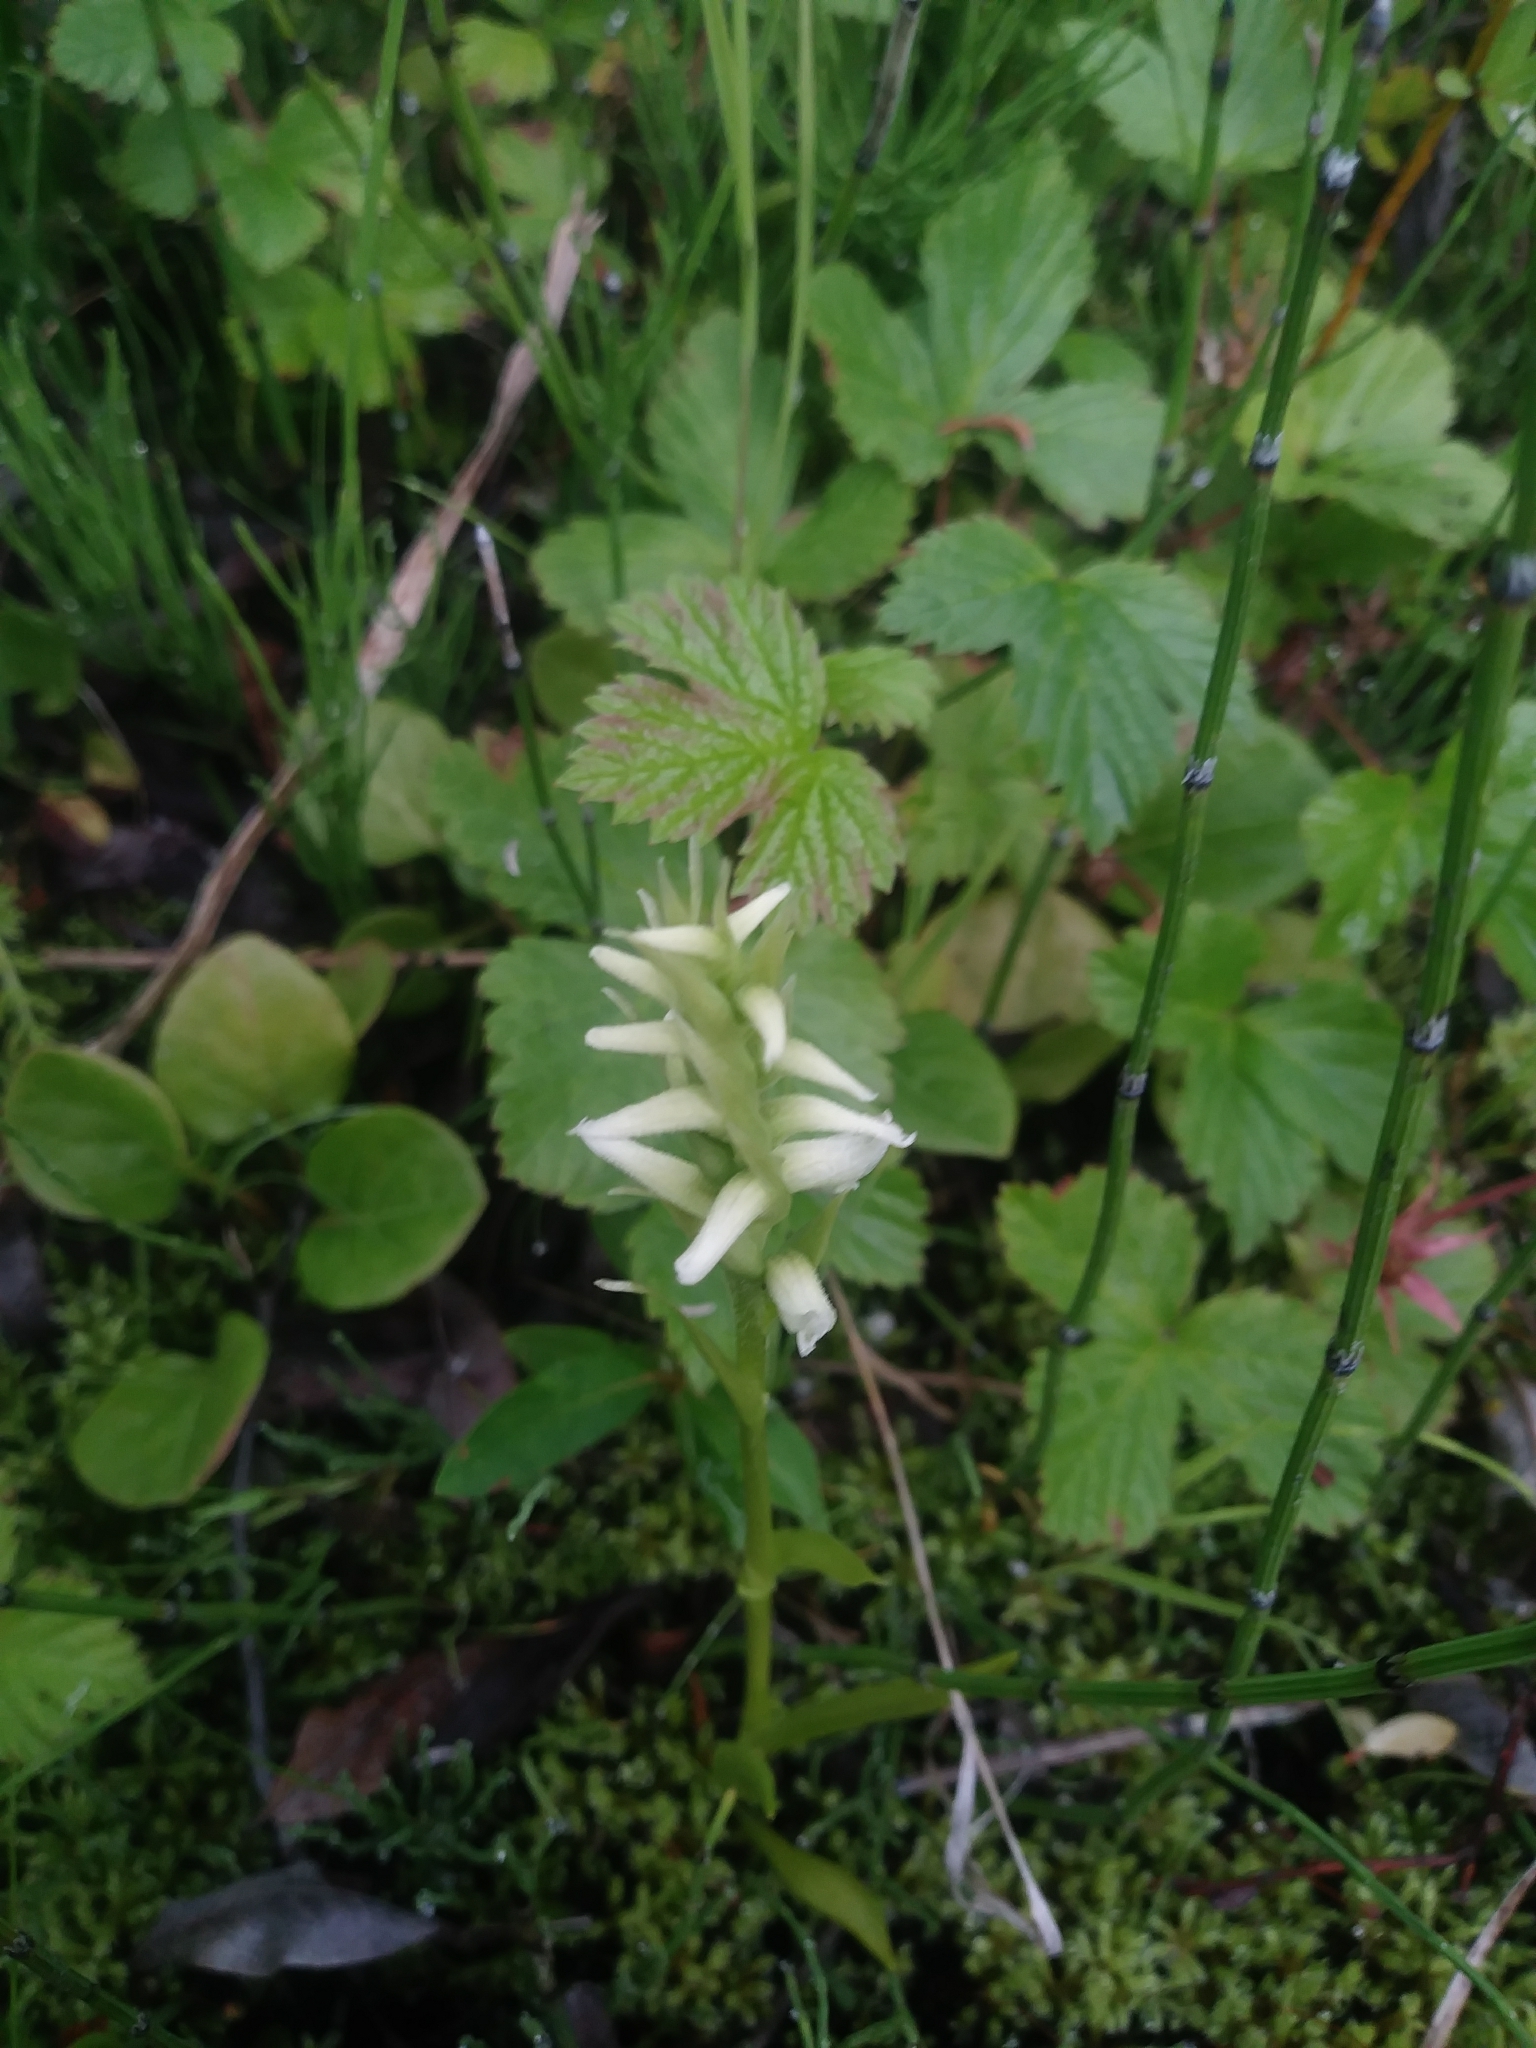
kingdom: Plantae
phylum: Tracheophyta
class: Liliopsida
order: Asparagales
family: Orchidaceae
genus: Spiranthes
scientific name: Spiranthes romanzoffiana
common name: Irish lady's-tresses
